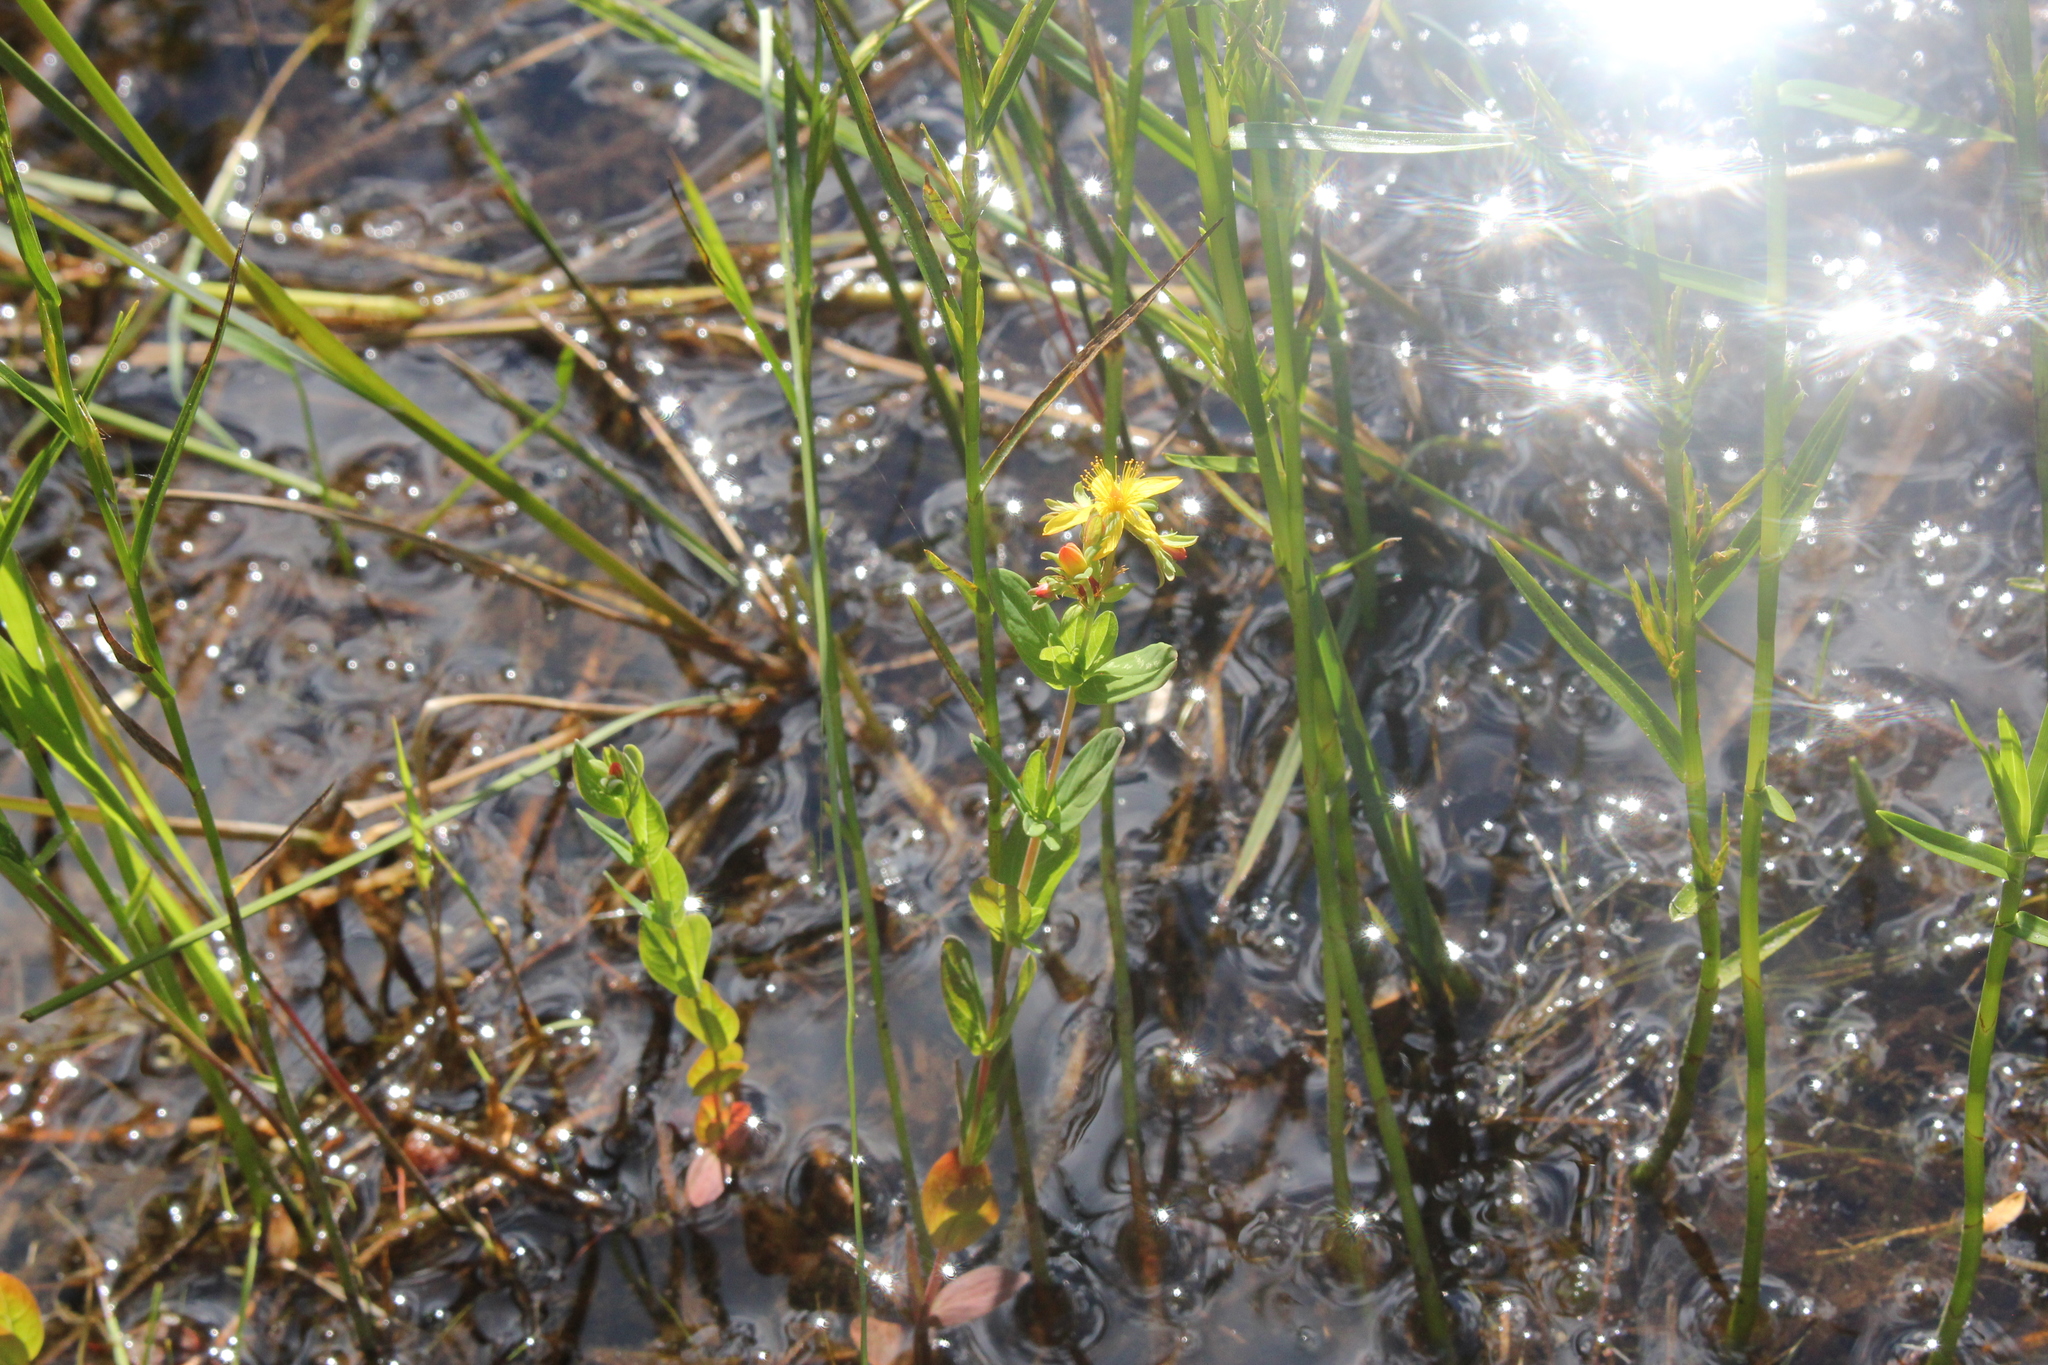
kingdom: Plantae
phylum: Tracheophyta
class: Magnoliopsida
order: Malpighiales
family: Hypericaceae
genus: Hypericum
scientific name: Hypericum ellipticum
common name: Elliptic st. john's-wort
